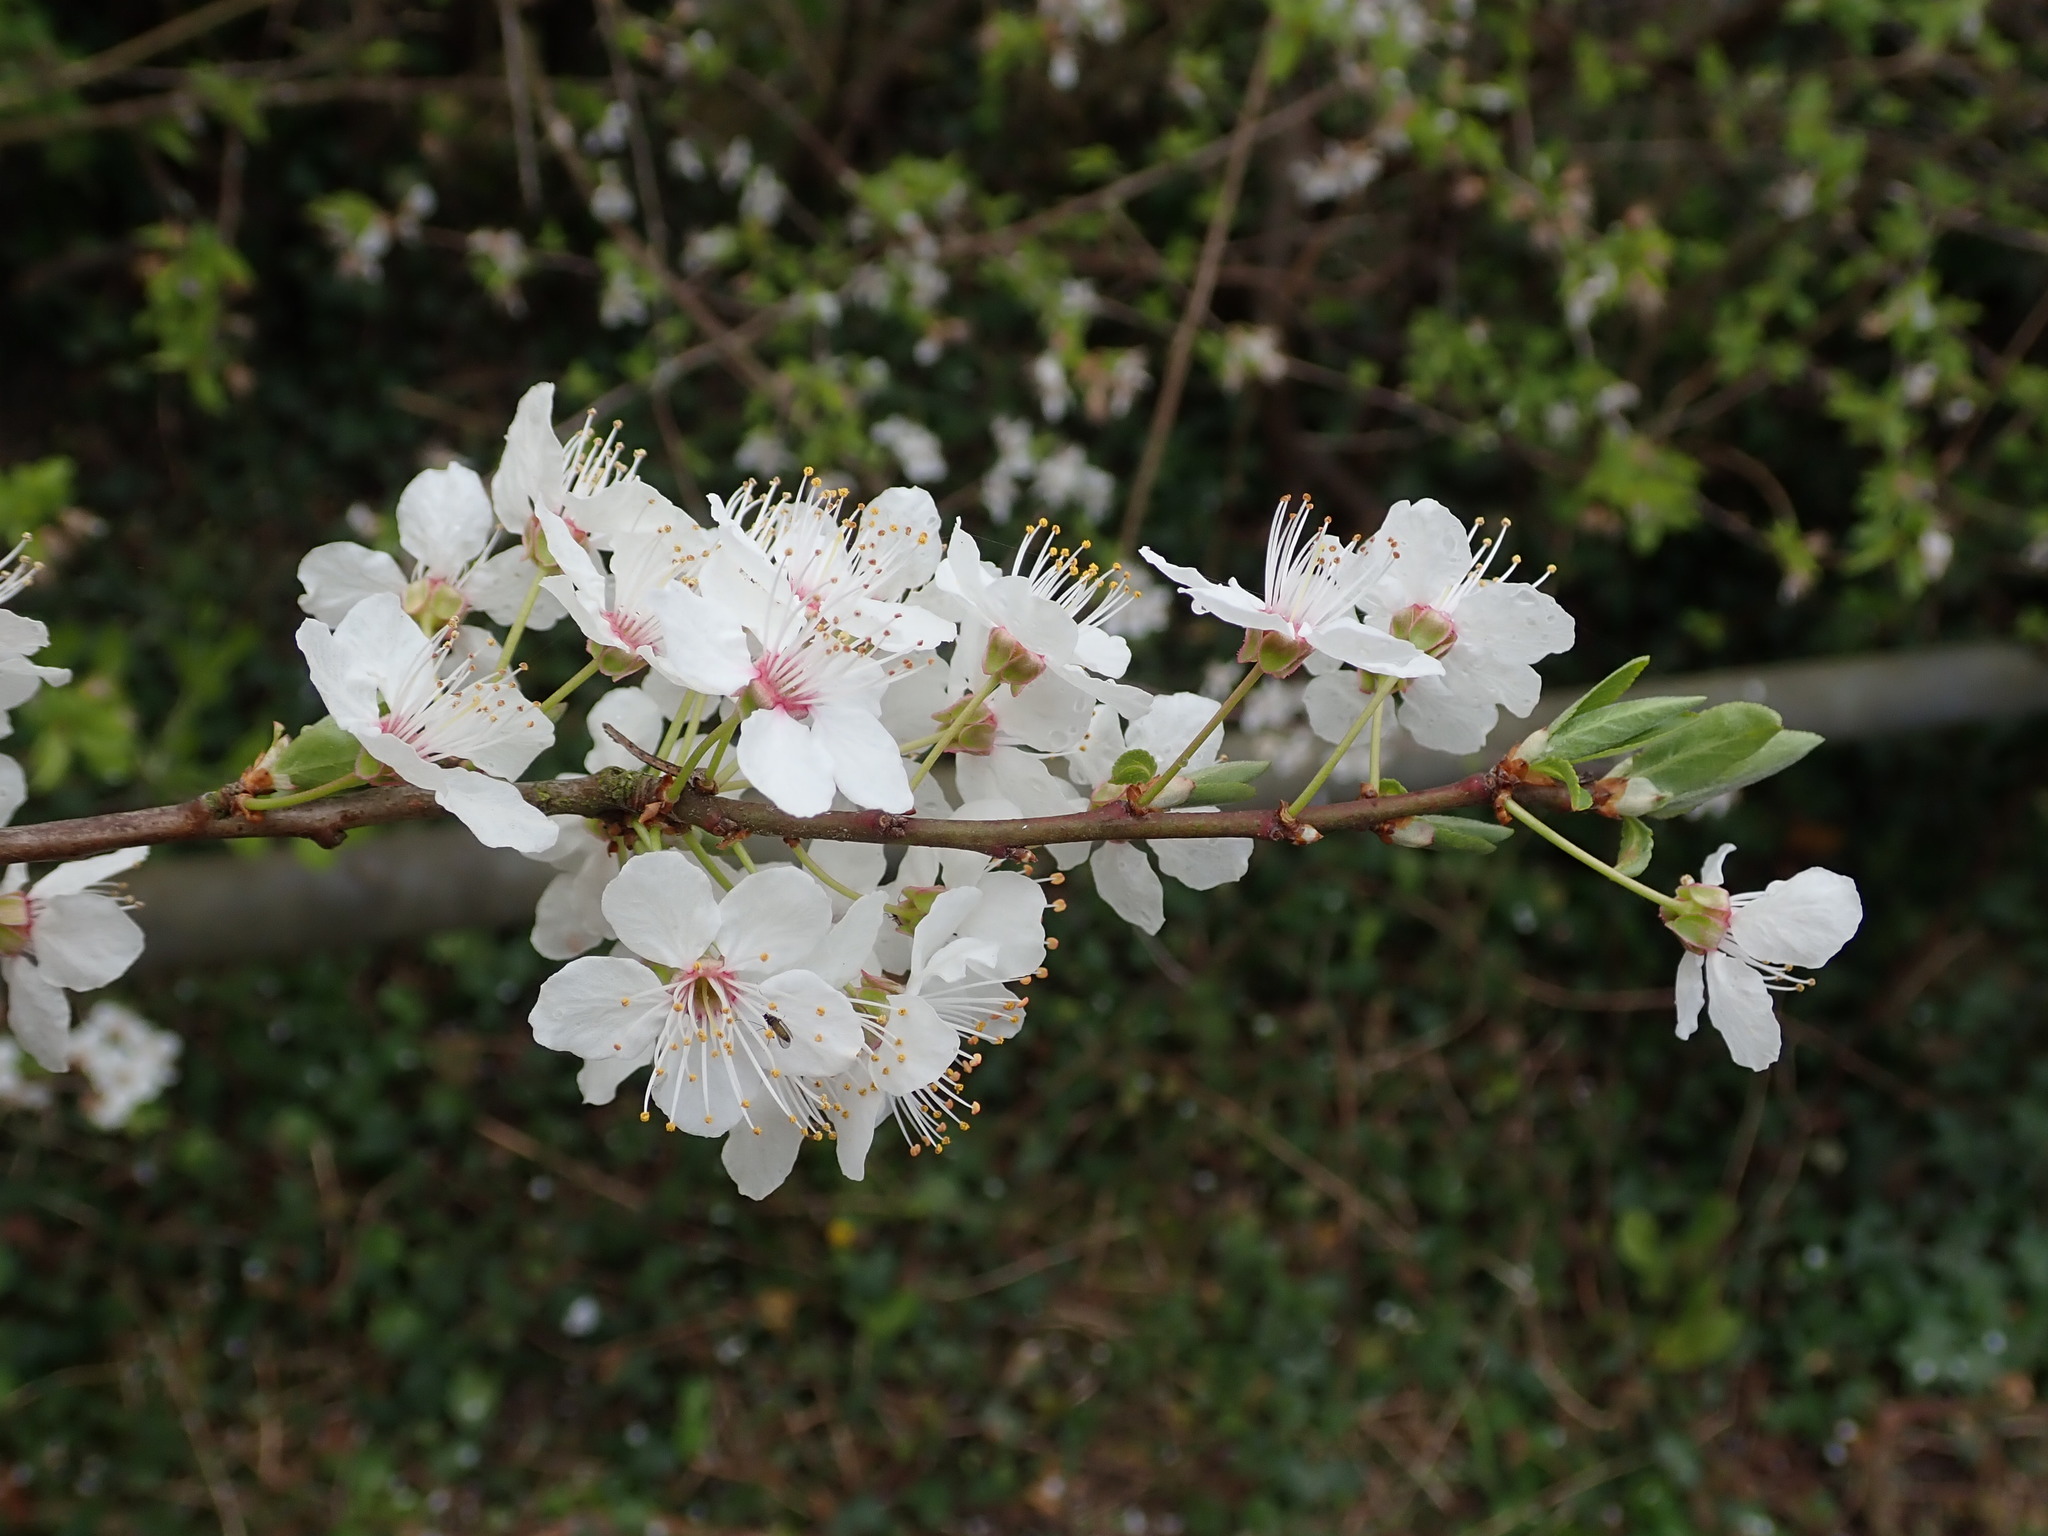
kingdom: Plantae
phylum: Tracheophyta
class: Magnoliopsida
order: Rosales
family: Rosaceae
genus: Prunus
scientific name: Prunus cerasifera
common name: Cherry plum
